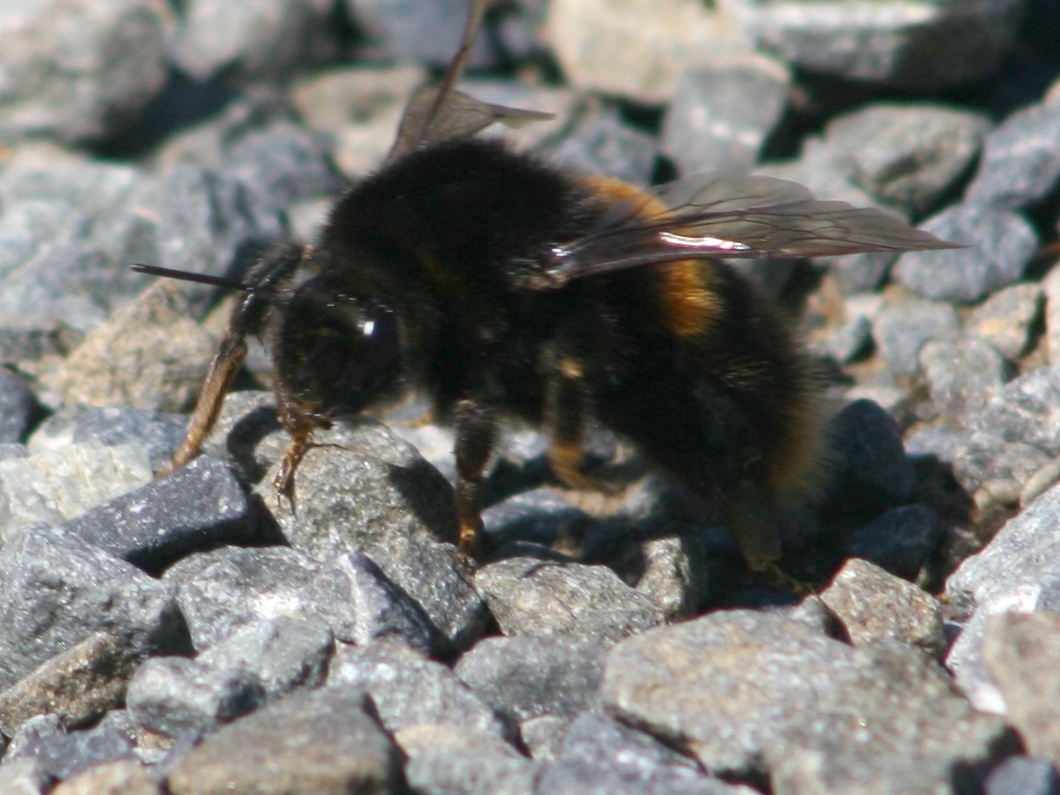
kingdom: Animalia
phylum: Arthropoda
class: Insecta
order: Hymenoptera
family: Apidae
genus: Bombus
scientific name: Bombus terrestris
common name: Buff-tailed bumblebee
